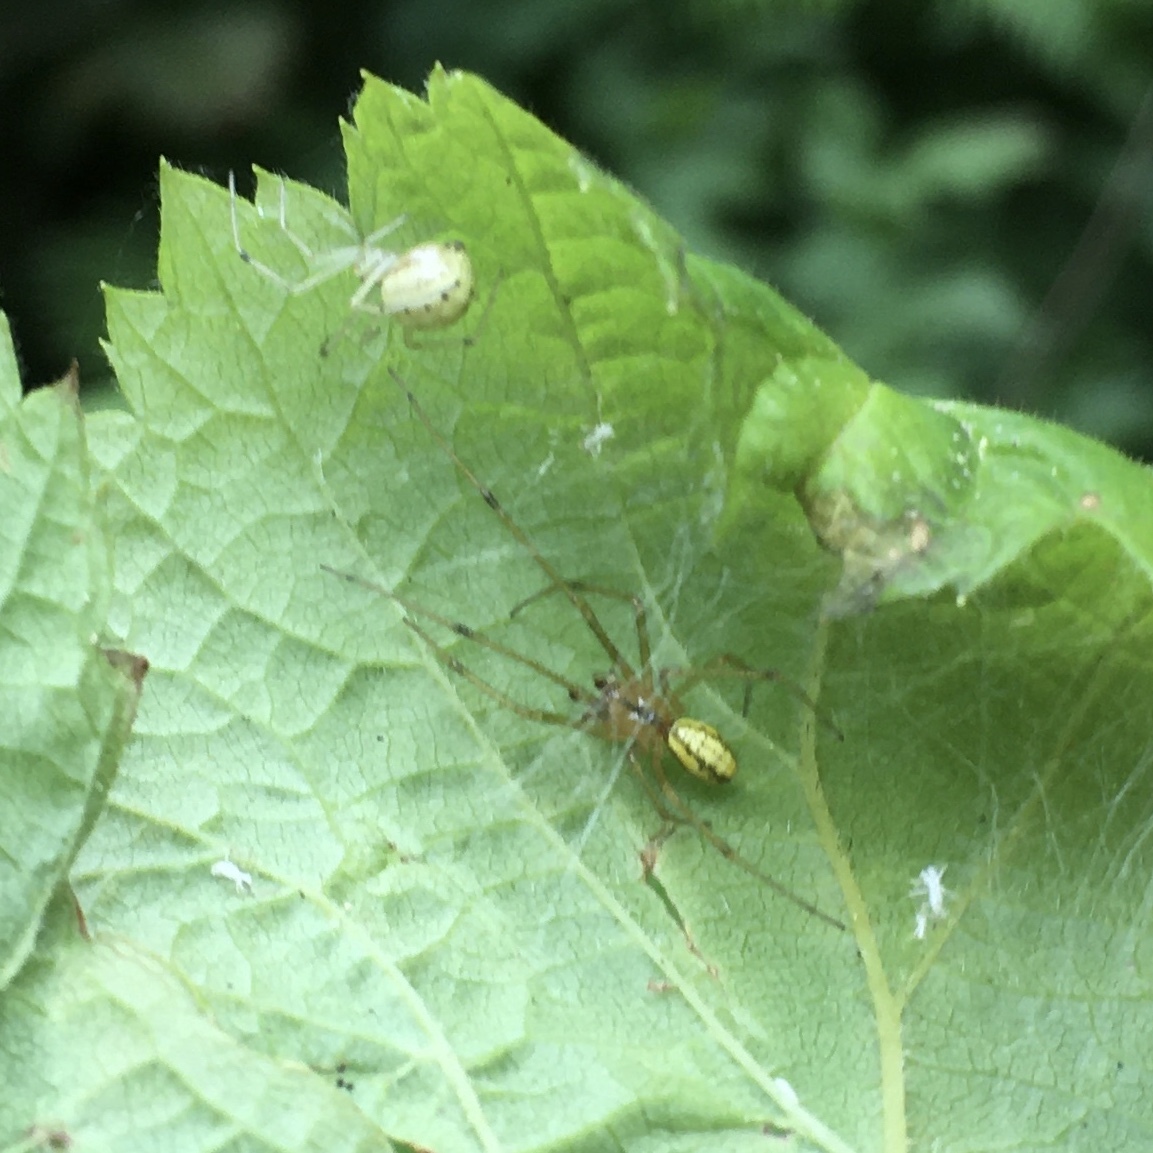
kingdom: Animalia
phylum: Arthropoda
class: Arachnida
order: Araneae
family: Theridiidae
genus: Enoplognatha
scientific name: Enoplognatha ovata
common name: Common candy-striped spider
